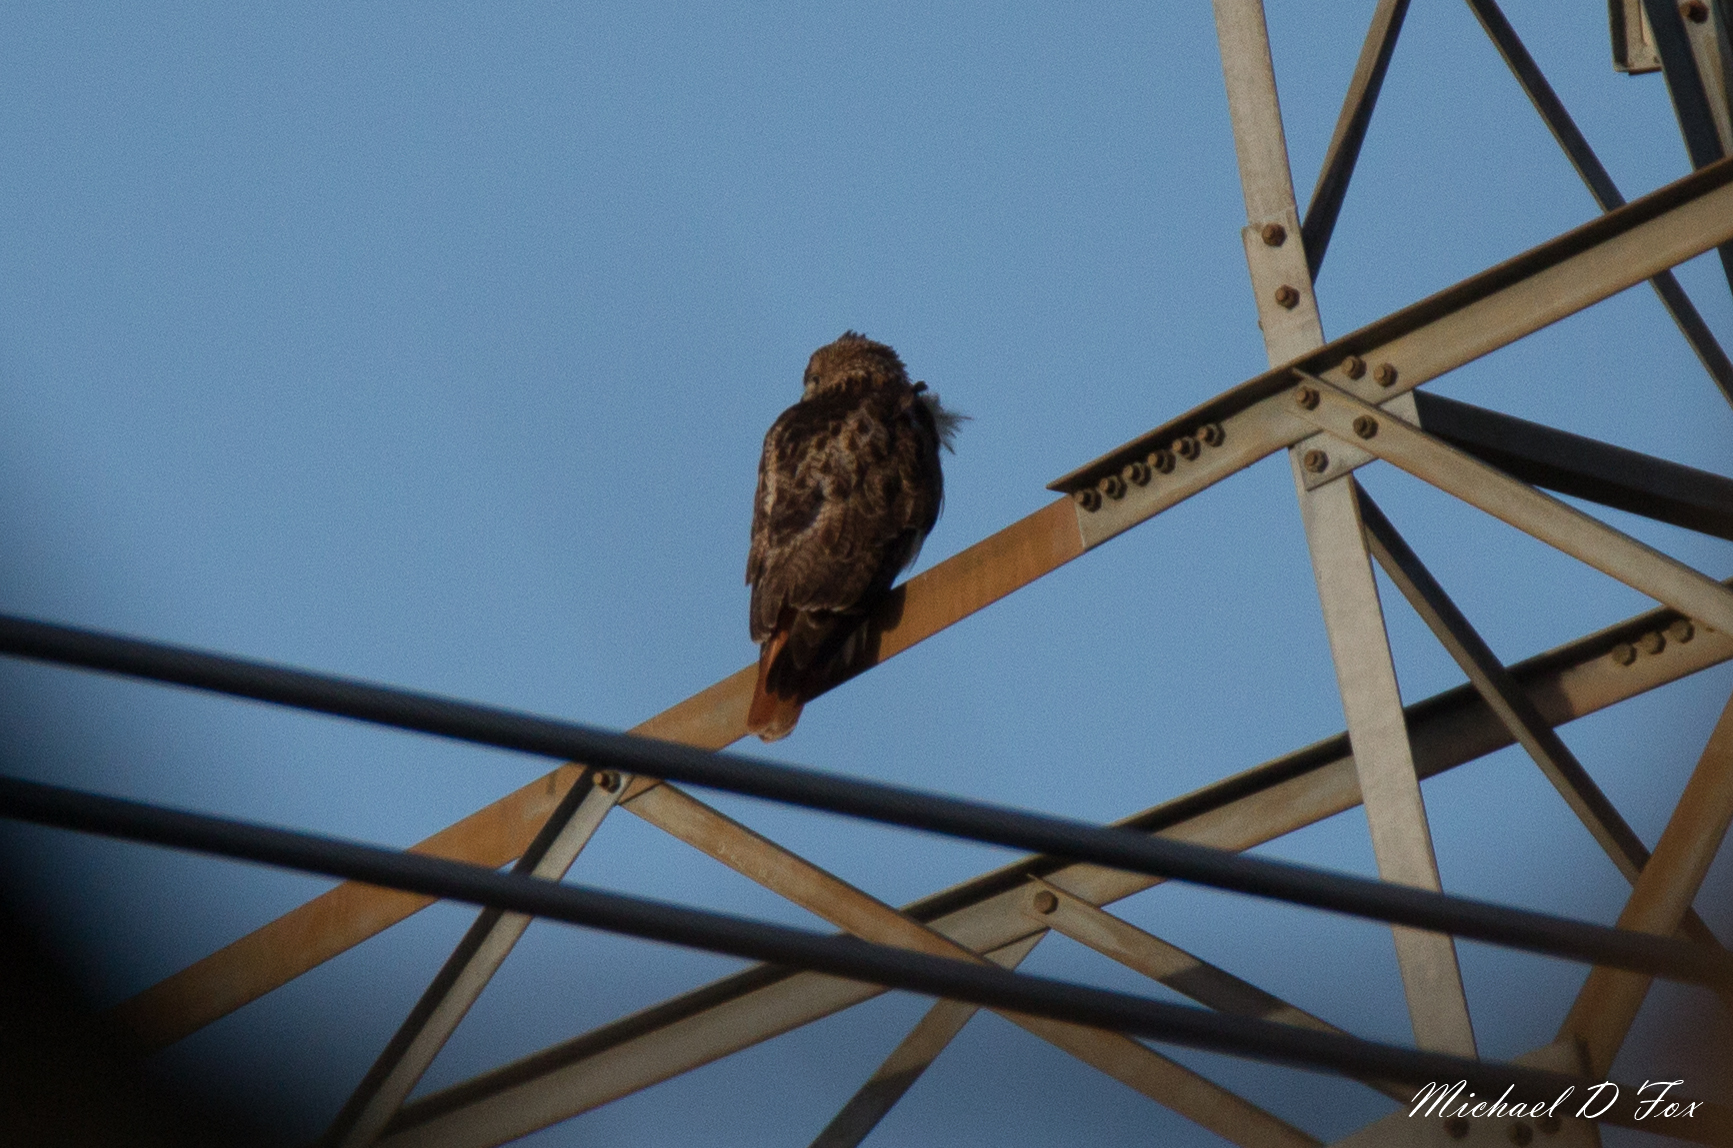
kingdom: Animalia
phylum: Chordata
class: Aves
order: Accipitriformes
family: Accipitridae
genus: Buteo
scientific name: Buteo jamaicensis
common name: Red-tailed hawk
